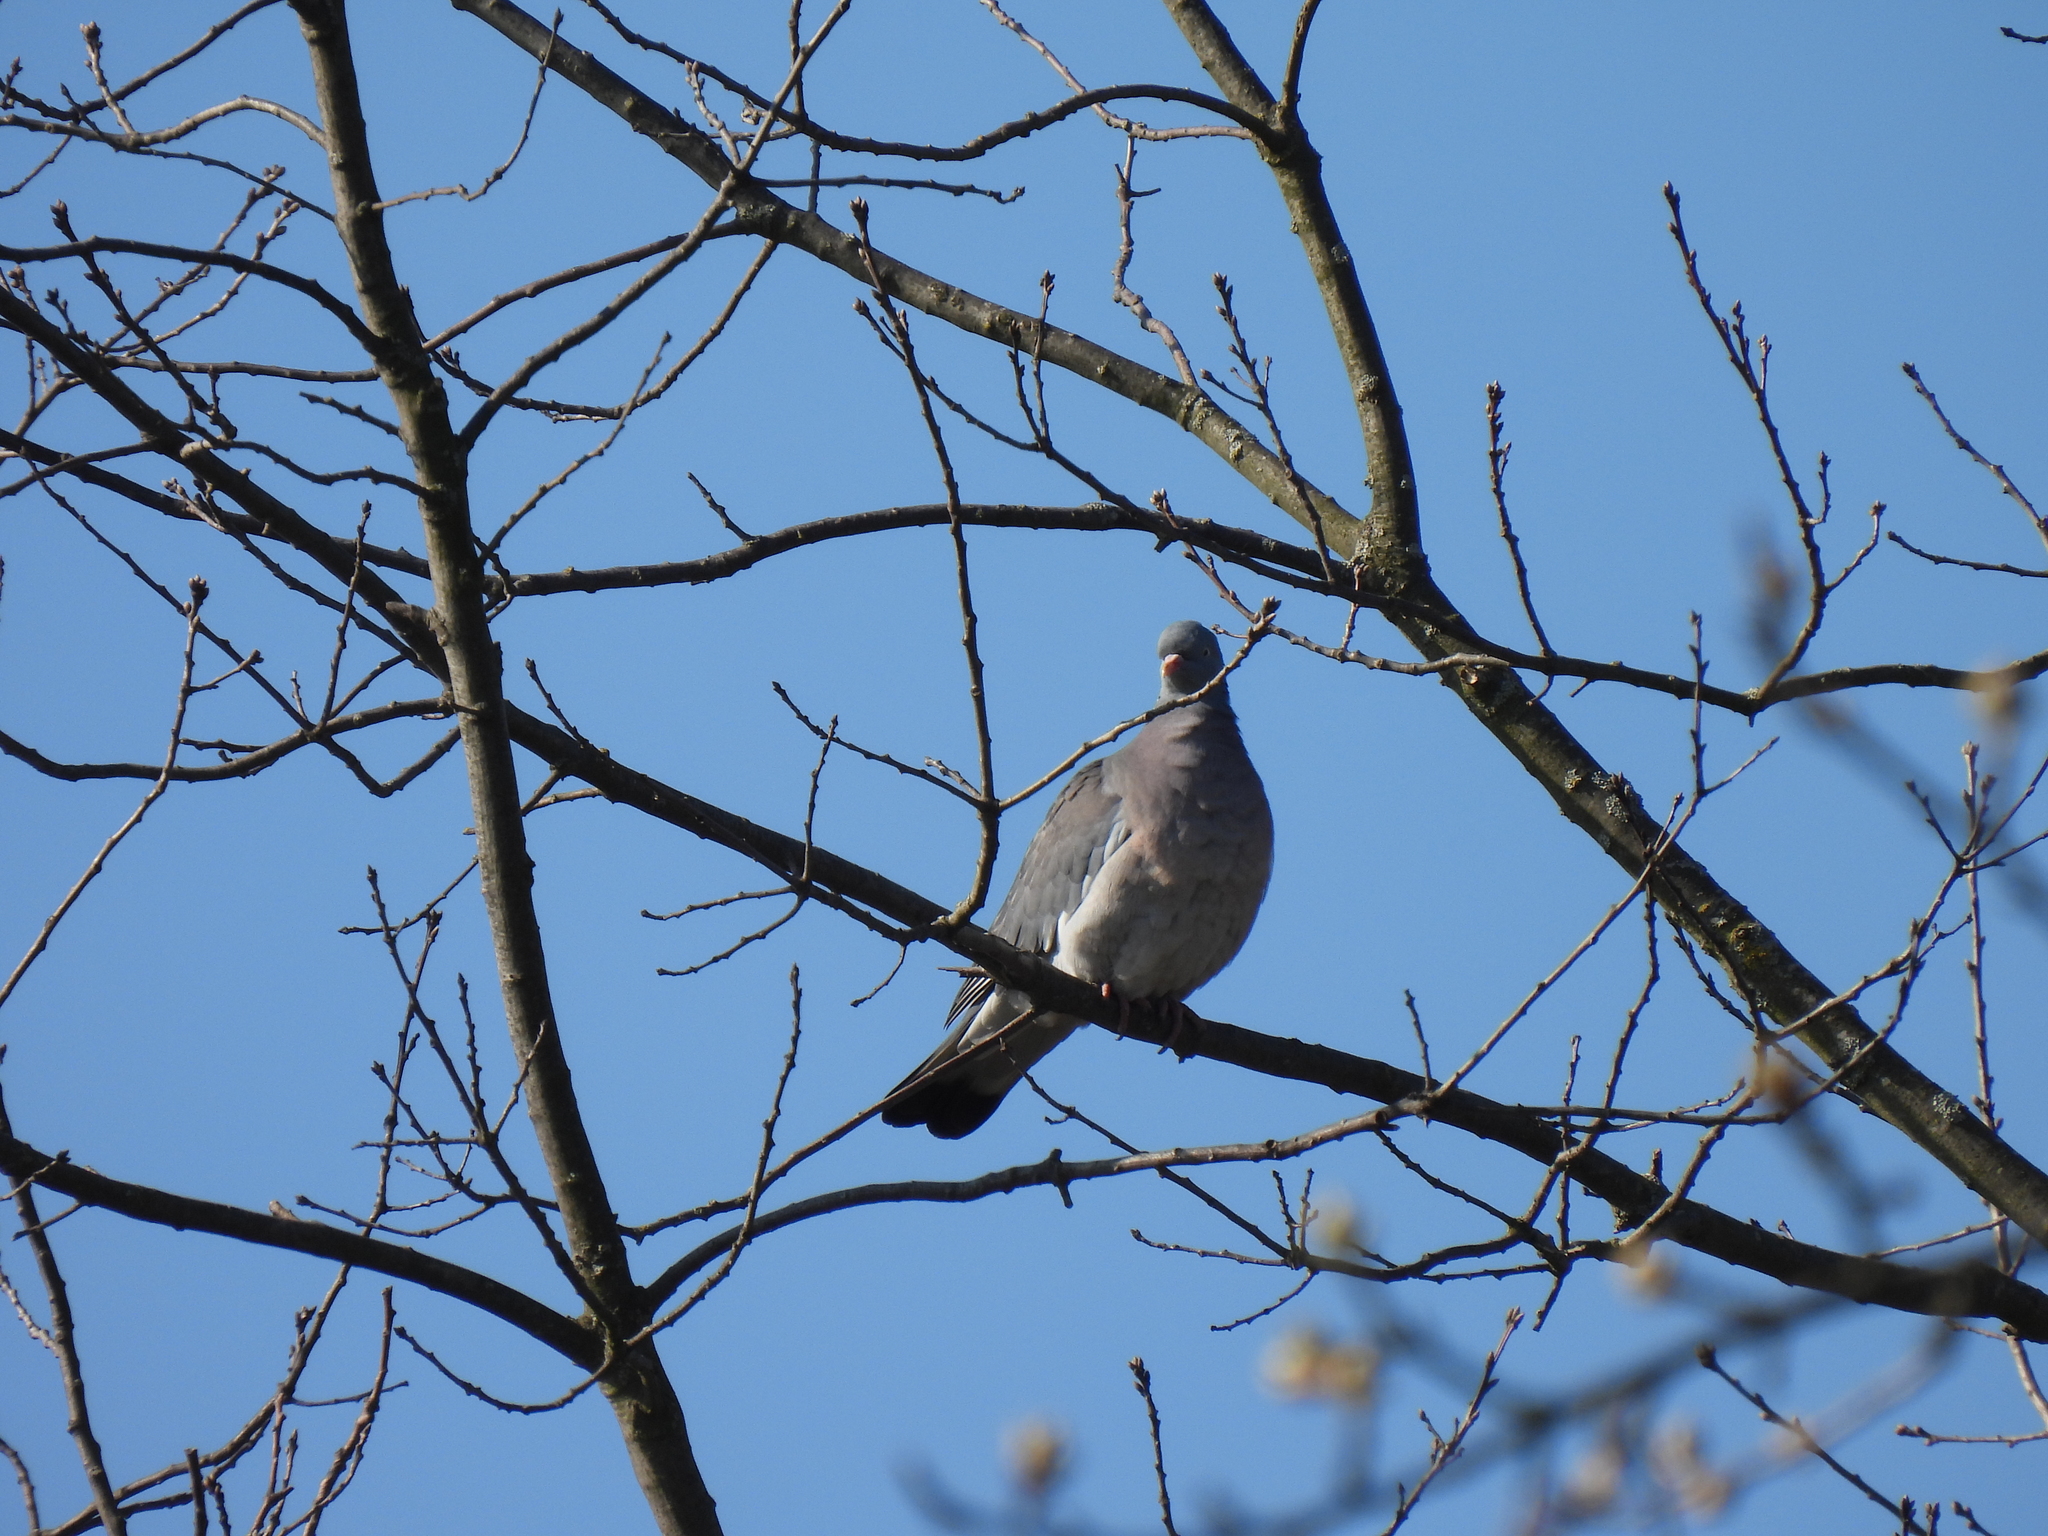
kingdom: Animalia
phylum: Chordata
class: Aves
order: Columbiformes
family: Columbidae
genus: Columba
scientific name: Columba palumbus
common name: Common wood pigeon
